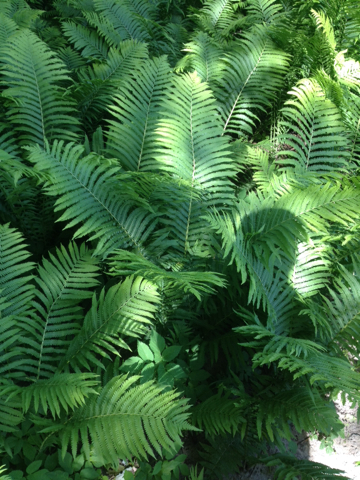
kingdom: Plantae
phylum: Tracheophyta
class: Polypodiopsida
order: Polypodiales
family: Onocleaceae
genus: Matteuccia
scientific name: Matteuccia struthiopteris
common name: Ostrich fern
